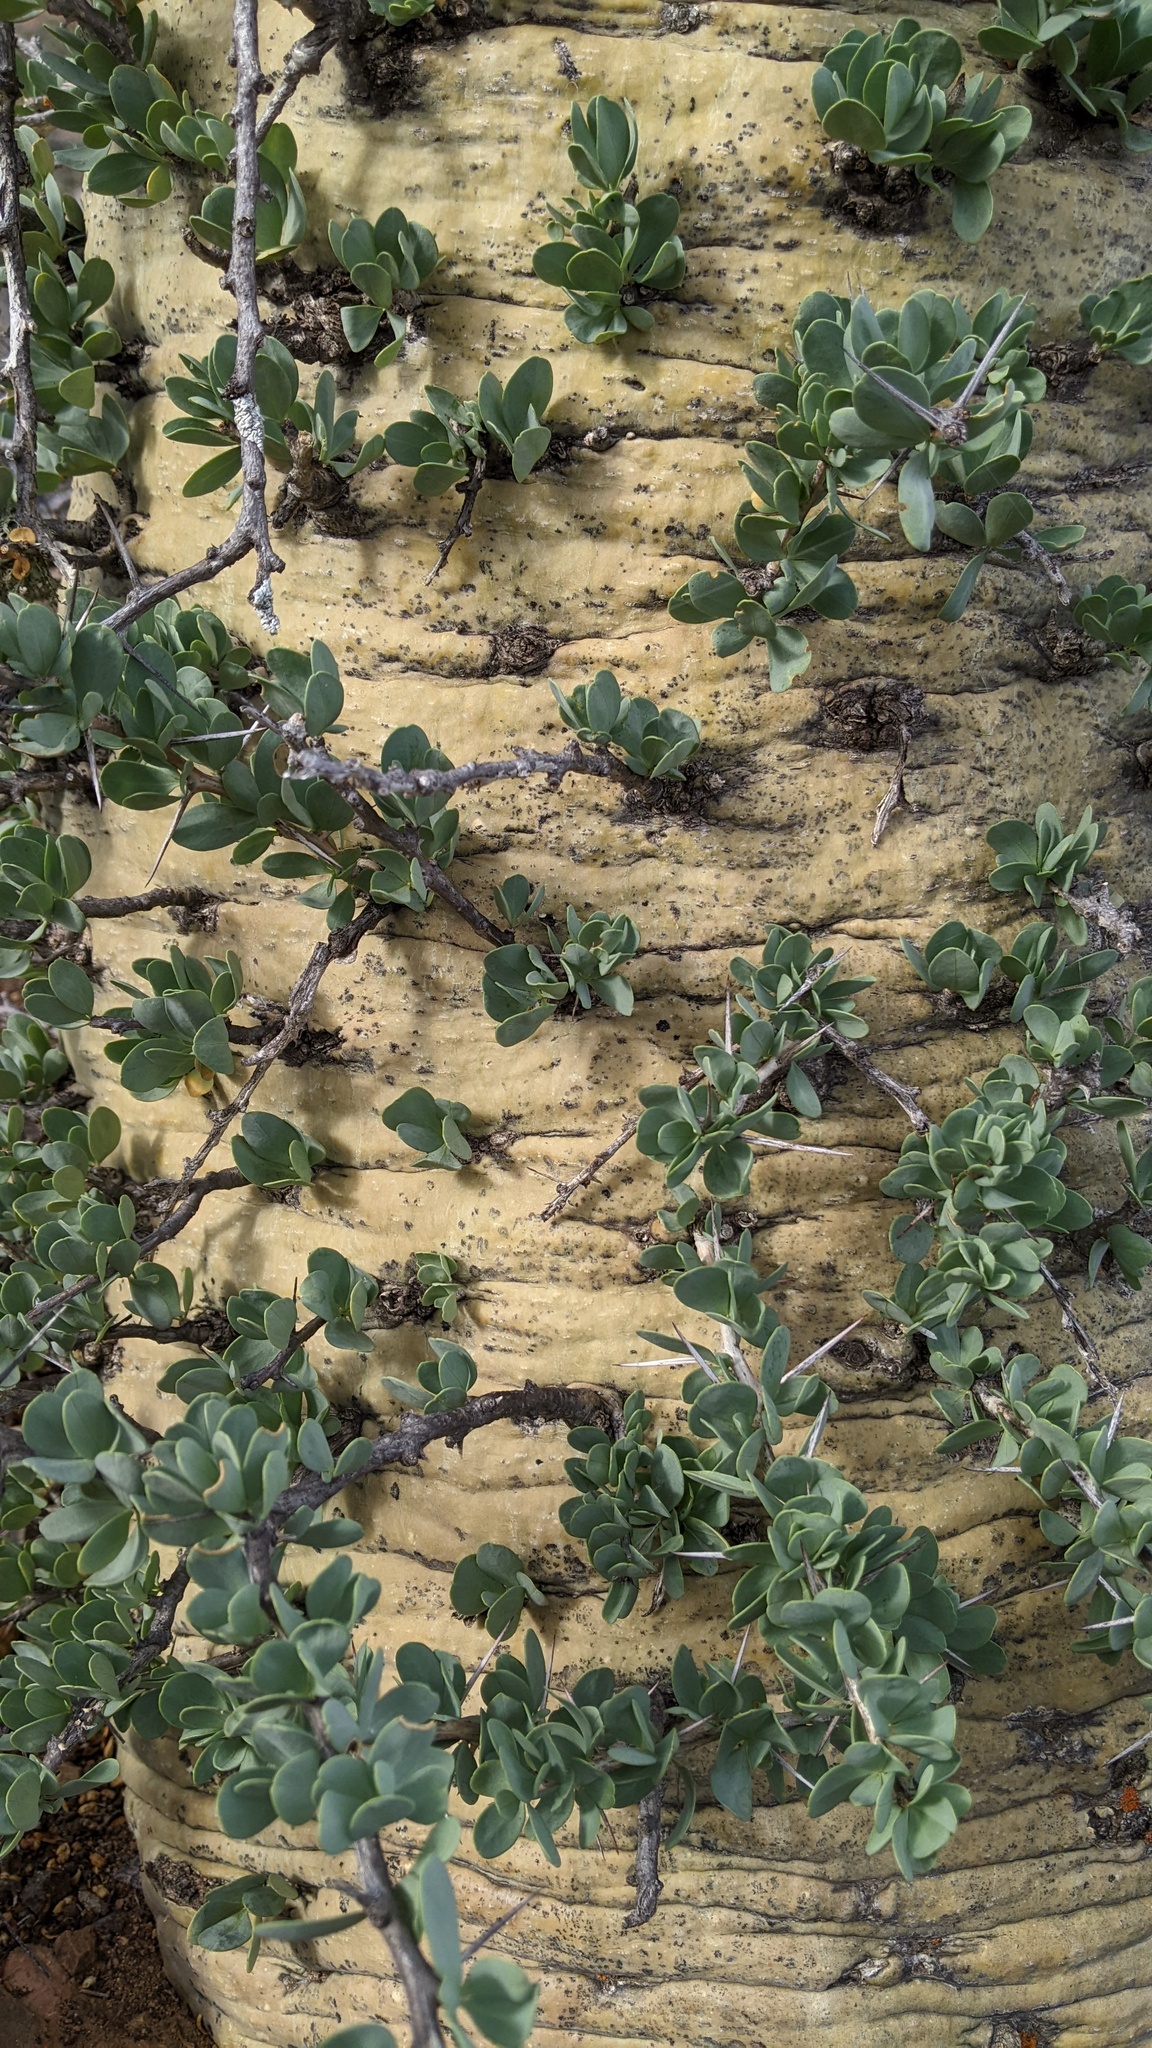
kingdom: Plantae
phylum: Tracheophyta
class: Magnoliopsida
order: Ericales
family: Fouquieriaceae
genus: Fouquieria
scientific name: Fouquieria columnaris
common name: Boojumtree
